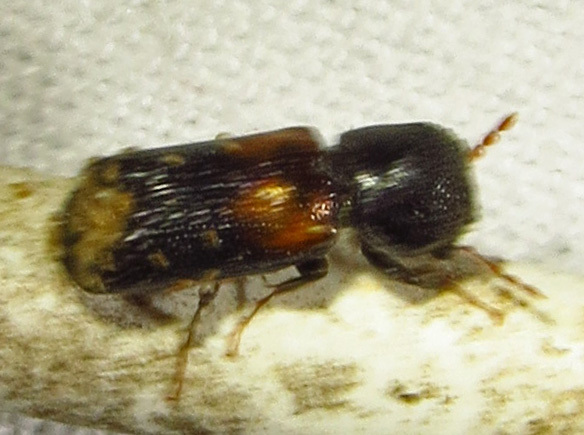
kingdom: Animalia
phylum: Arthropoda
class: Insecta
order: Coleoptera
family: Bostrichidae
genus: Xylobiops
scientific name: Xylobiops basilaris
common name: Red-shouldered bostrichid
